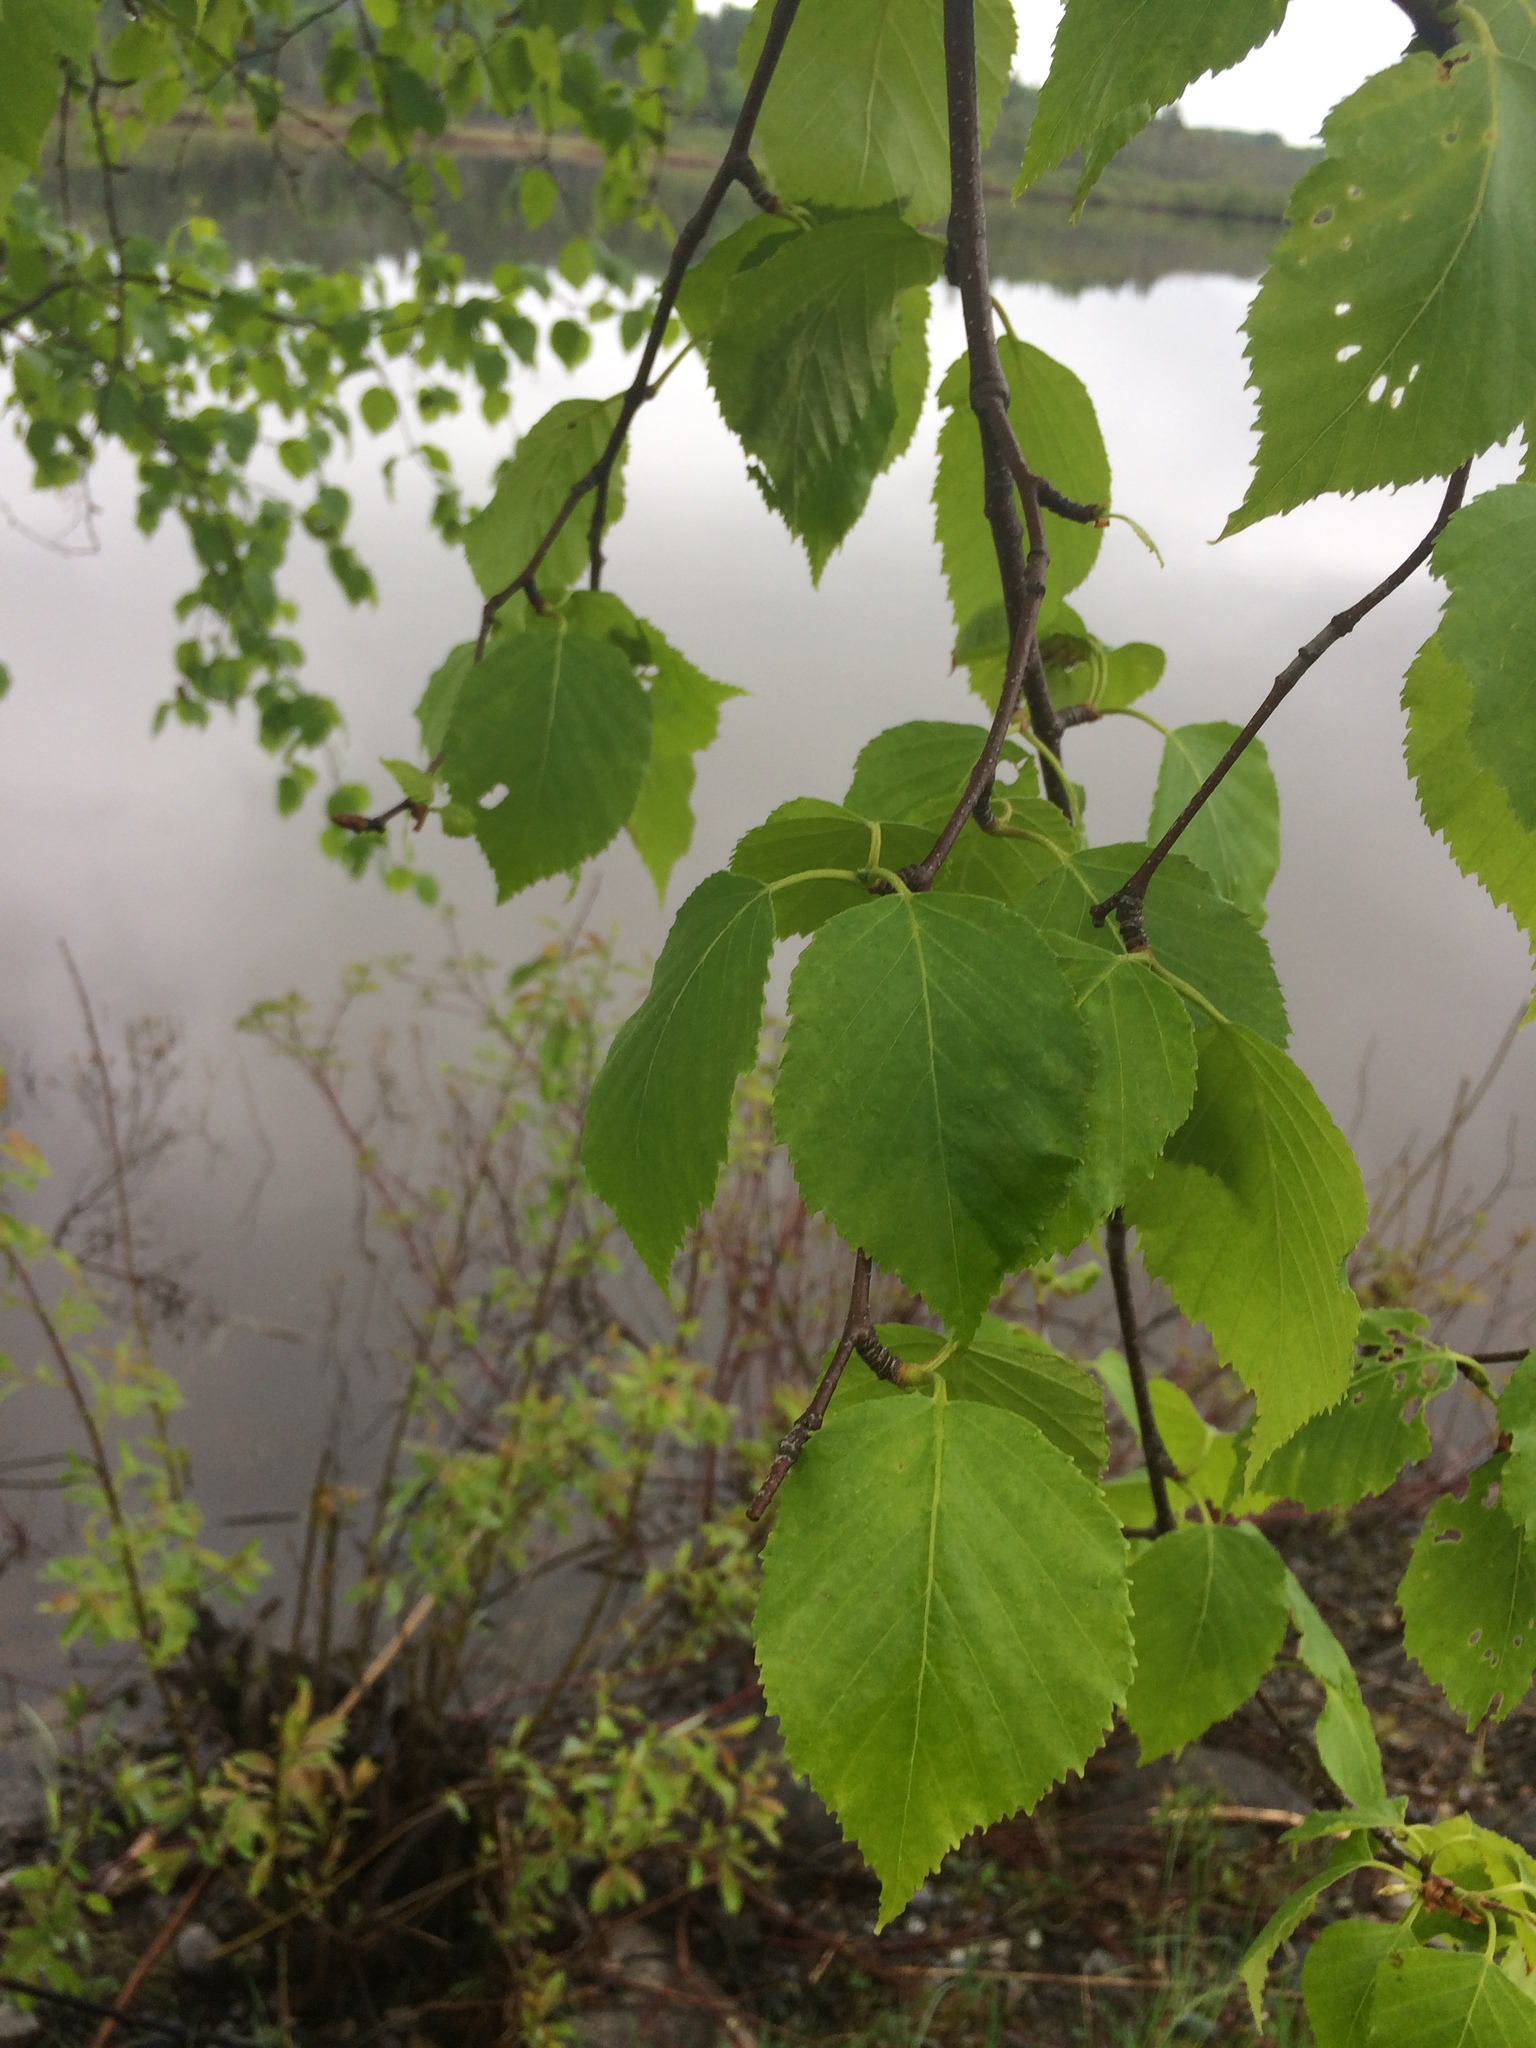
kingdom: Plantae
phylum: Tracheophyta
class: Magnoliopsida
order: Fagales
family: Betulaceae
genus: Betula
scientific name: Betula papyrifera
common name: Paper birch
